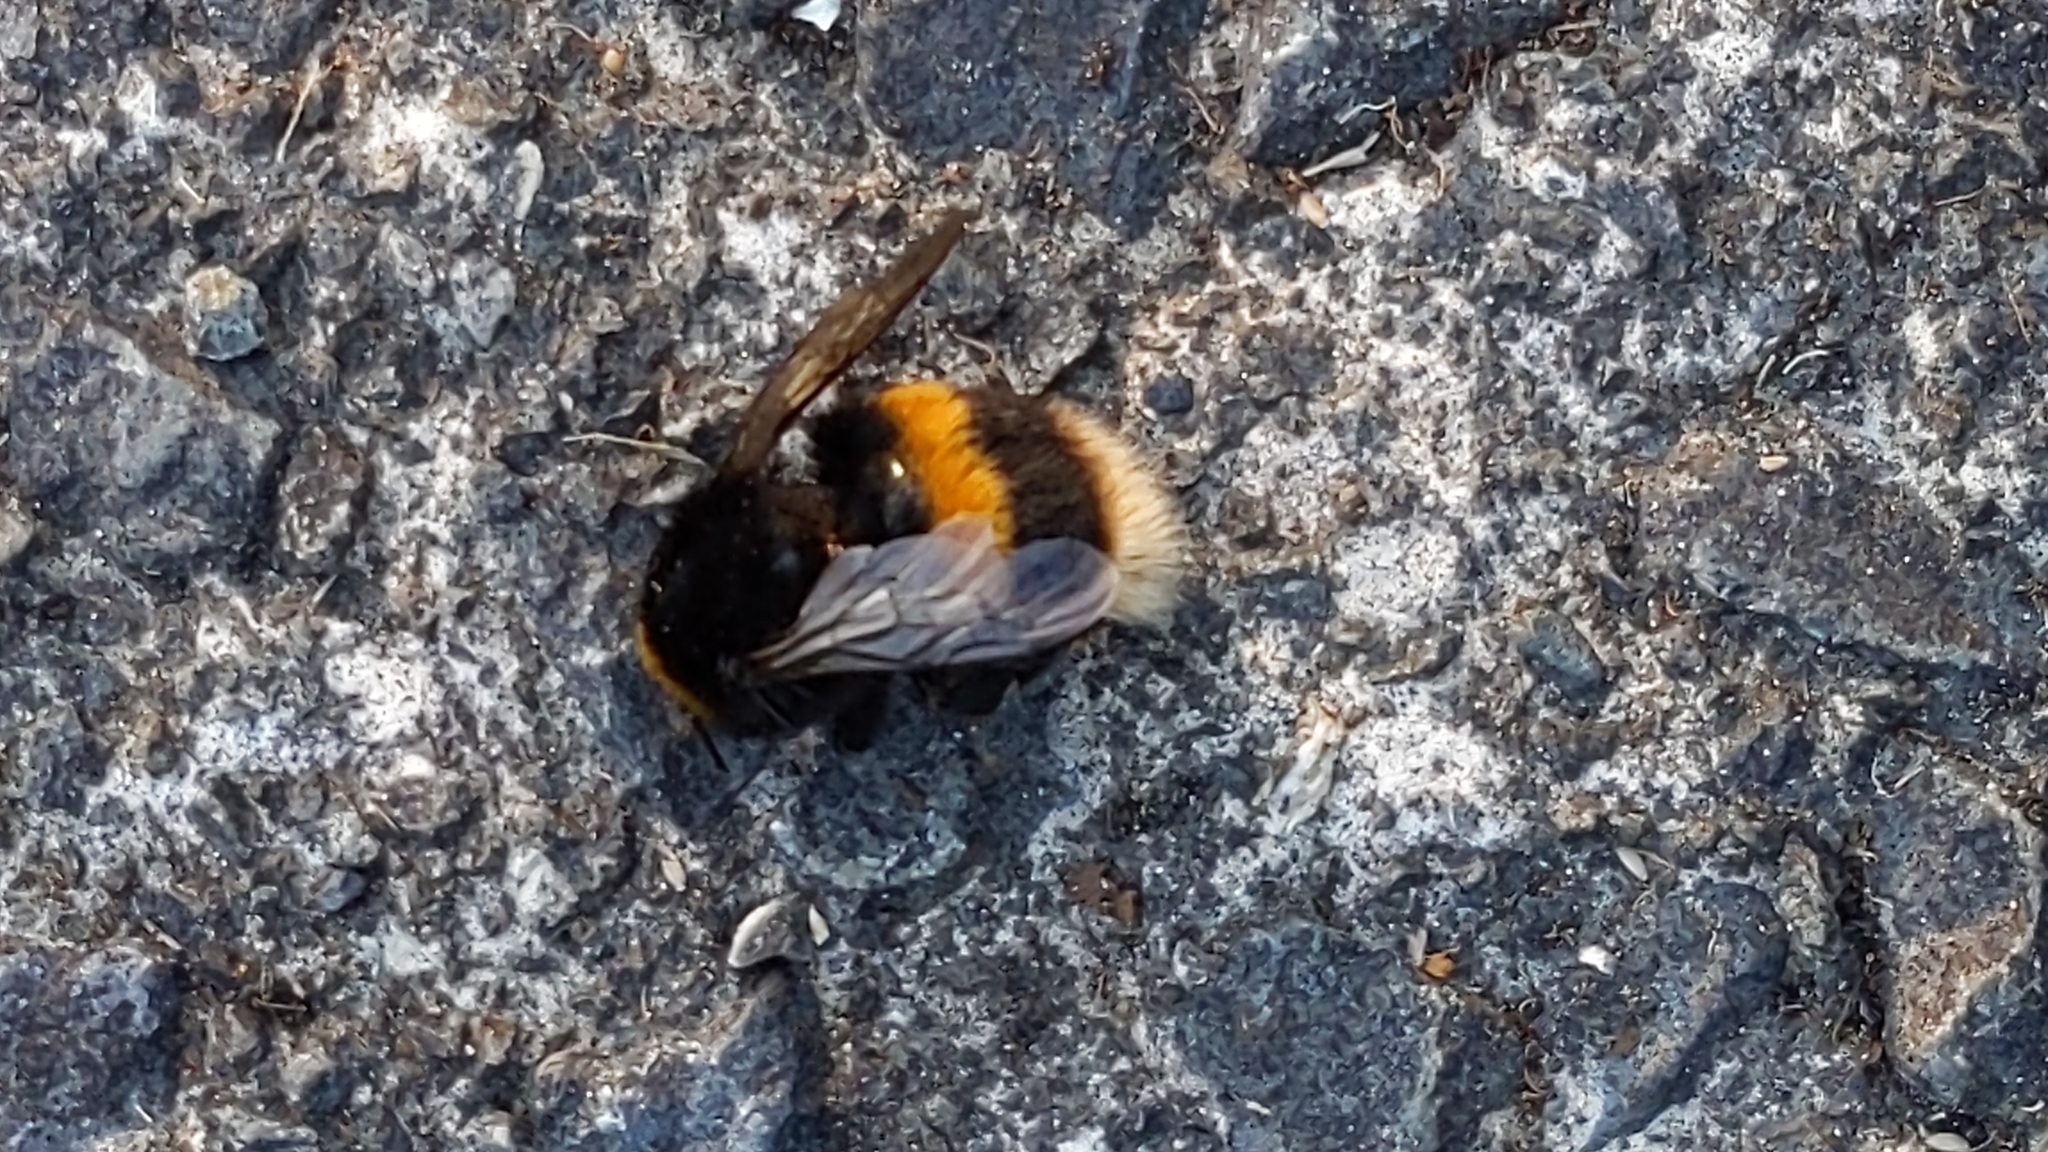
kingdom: Animalia
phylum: Arthropoda
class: Insecta
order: Hymenoptera
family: Apidae
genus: Bombus
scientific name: Bombus terrestris
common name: Buff-tailed bumblebee
